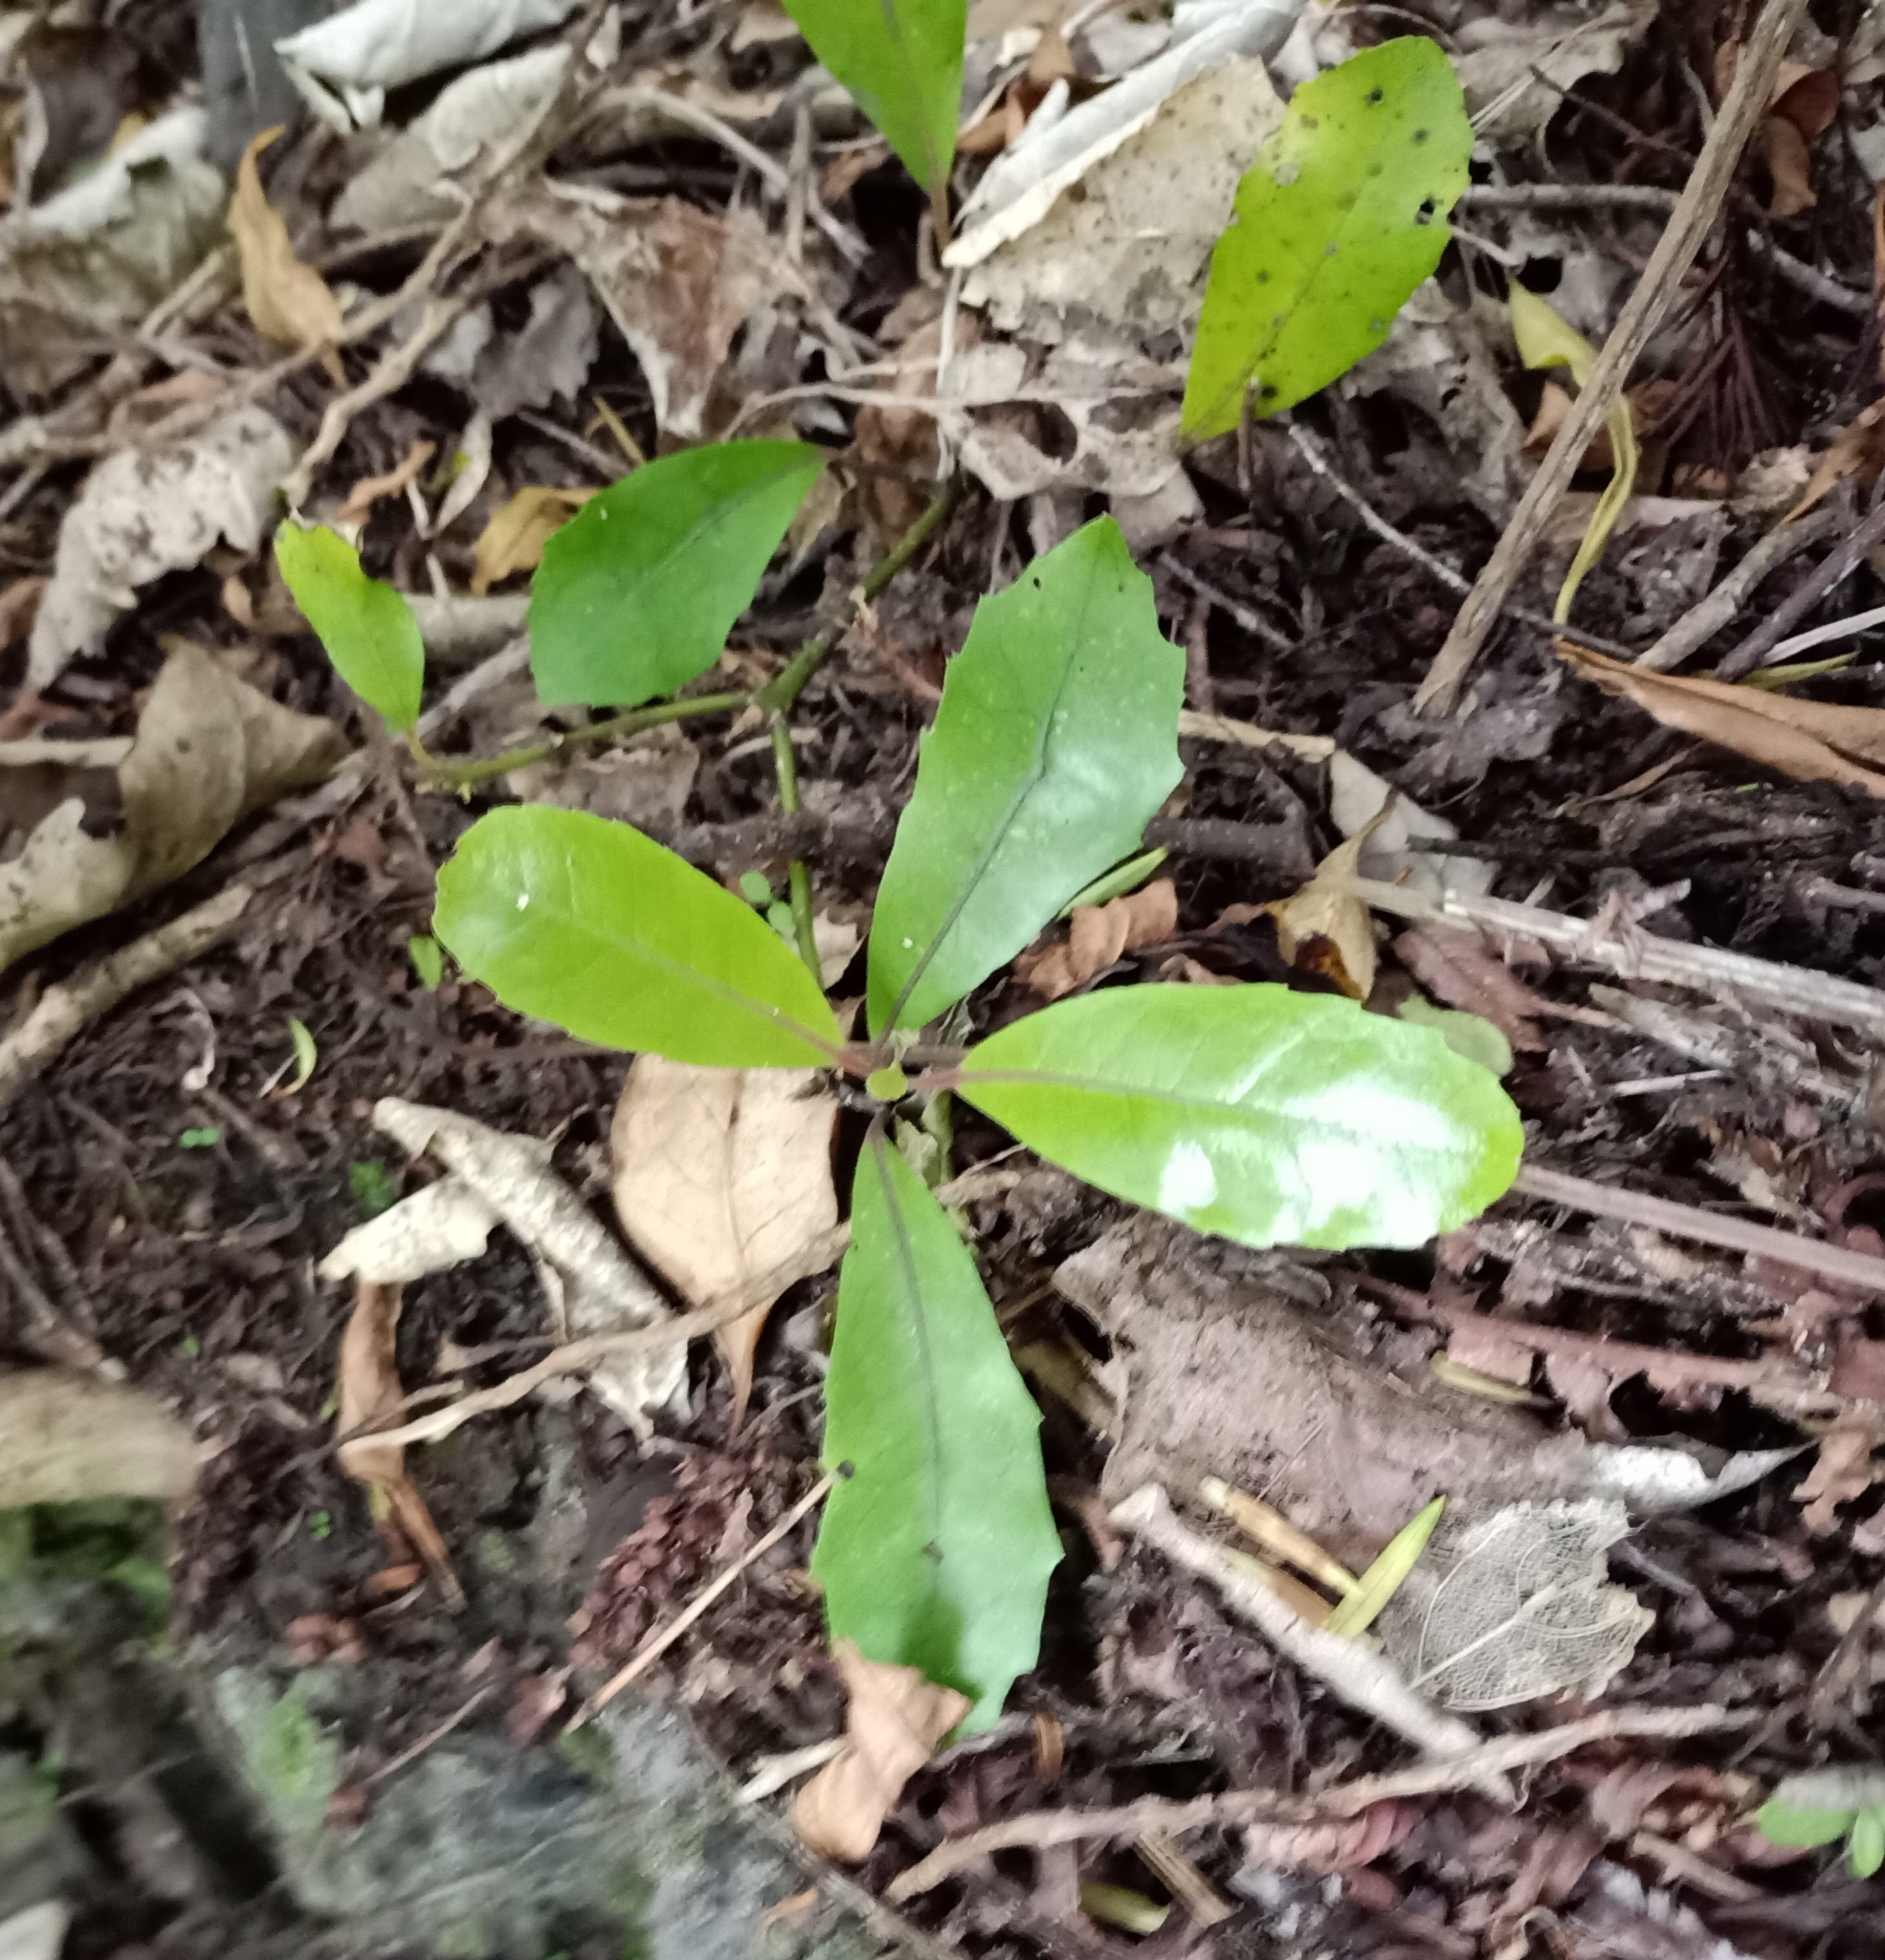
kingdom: Plantae
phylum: Tracheophyta
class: Magnoliopsida
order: Laurales
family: Monimiaceae
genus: Hedycarya
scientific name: Hedycarya arborea
